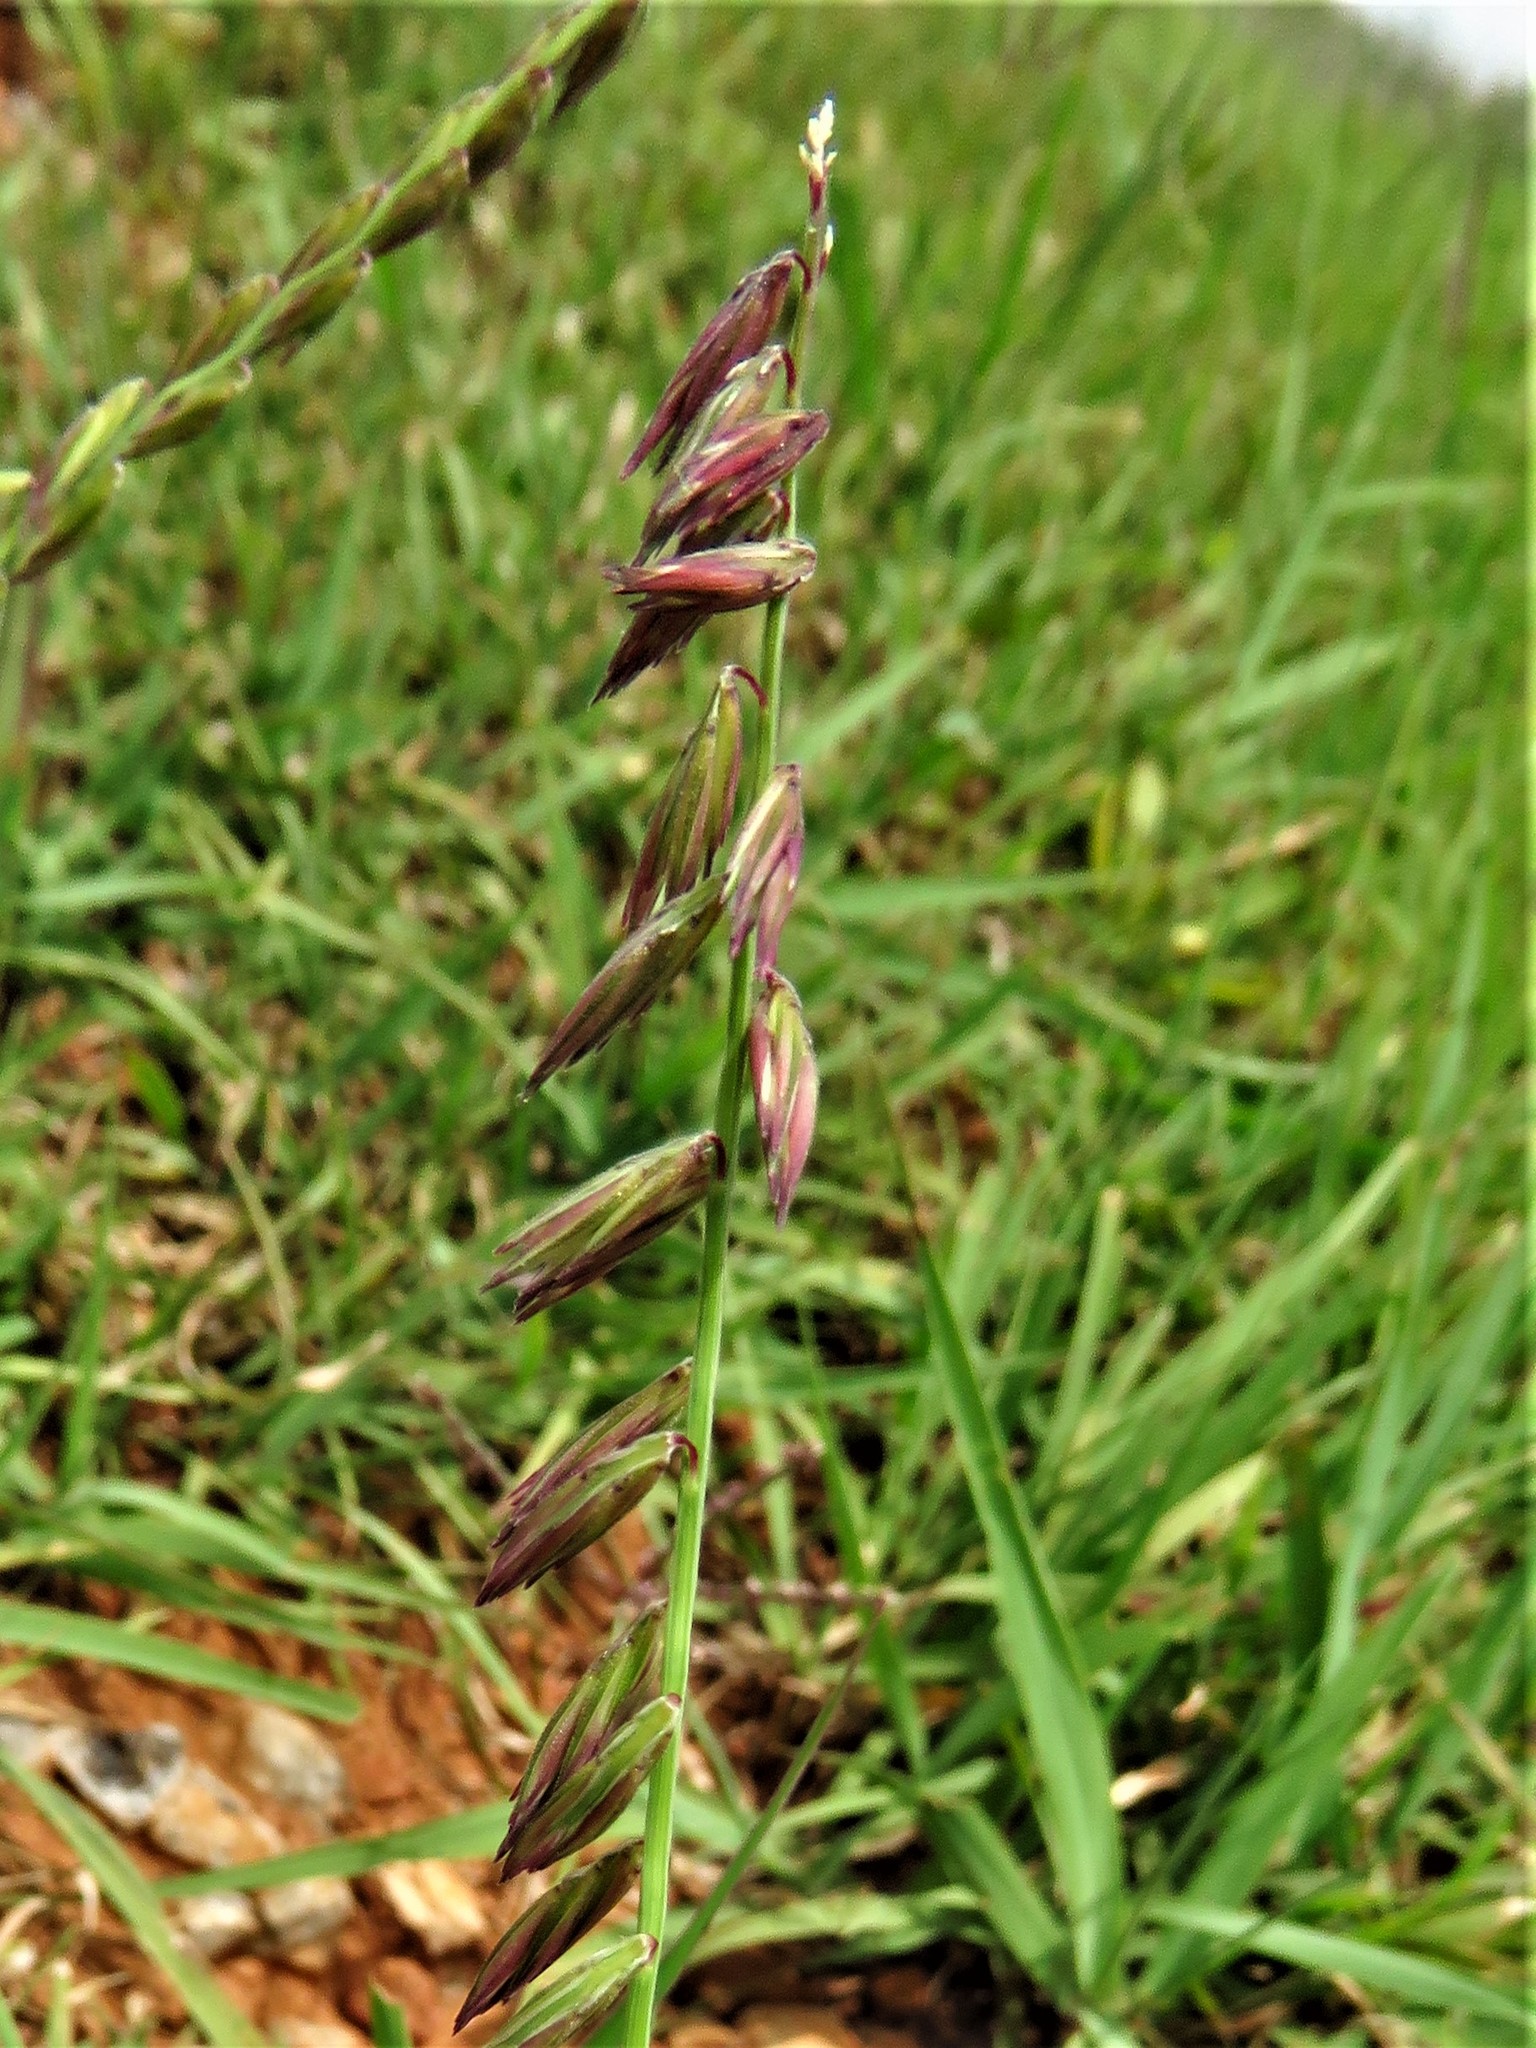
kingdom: Plantae
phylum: Tracheophyta
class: Liliopsida
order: Poales
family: Poaceae
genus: Bouteloua
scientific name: Bouteloua curtipendula
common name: Side-oats grama
